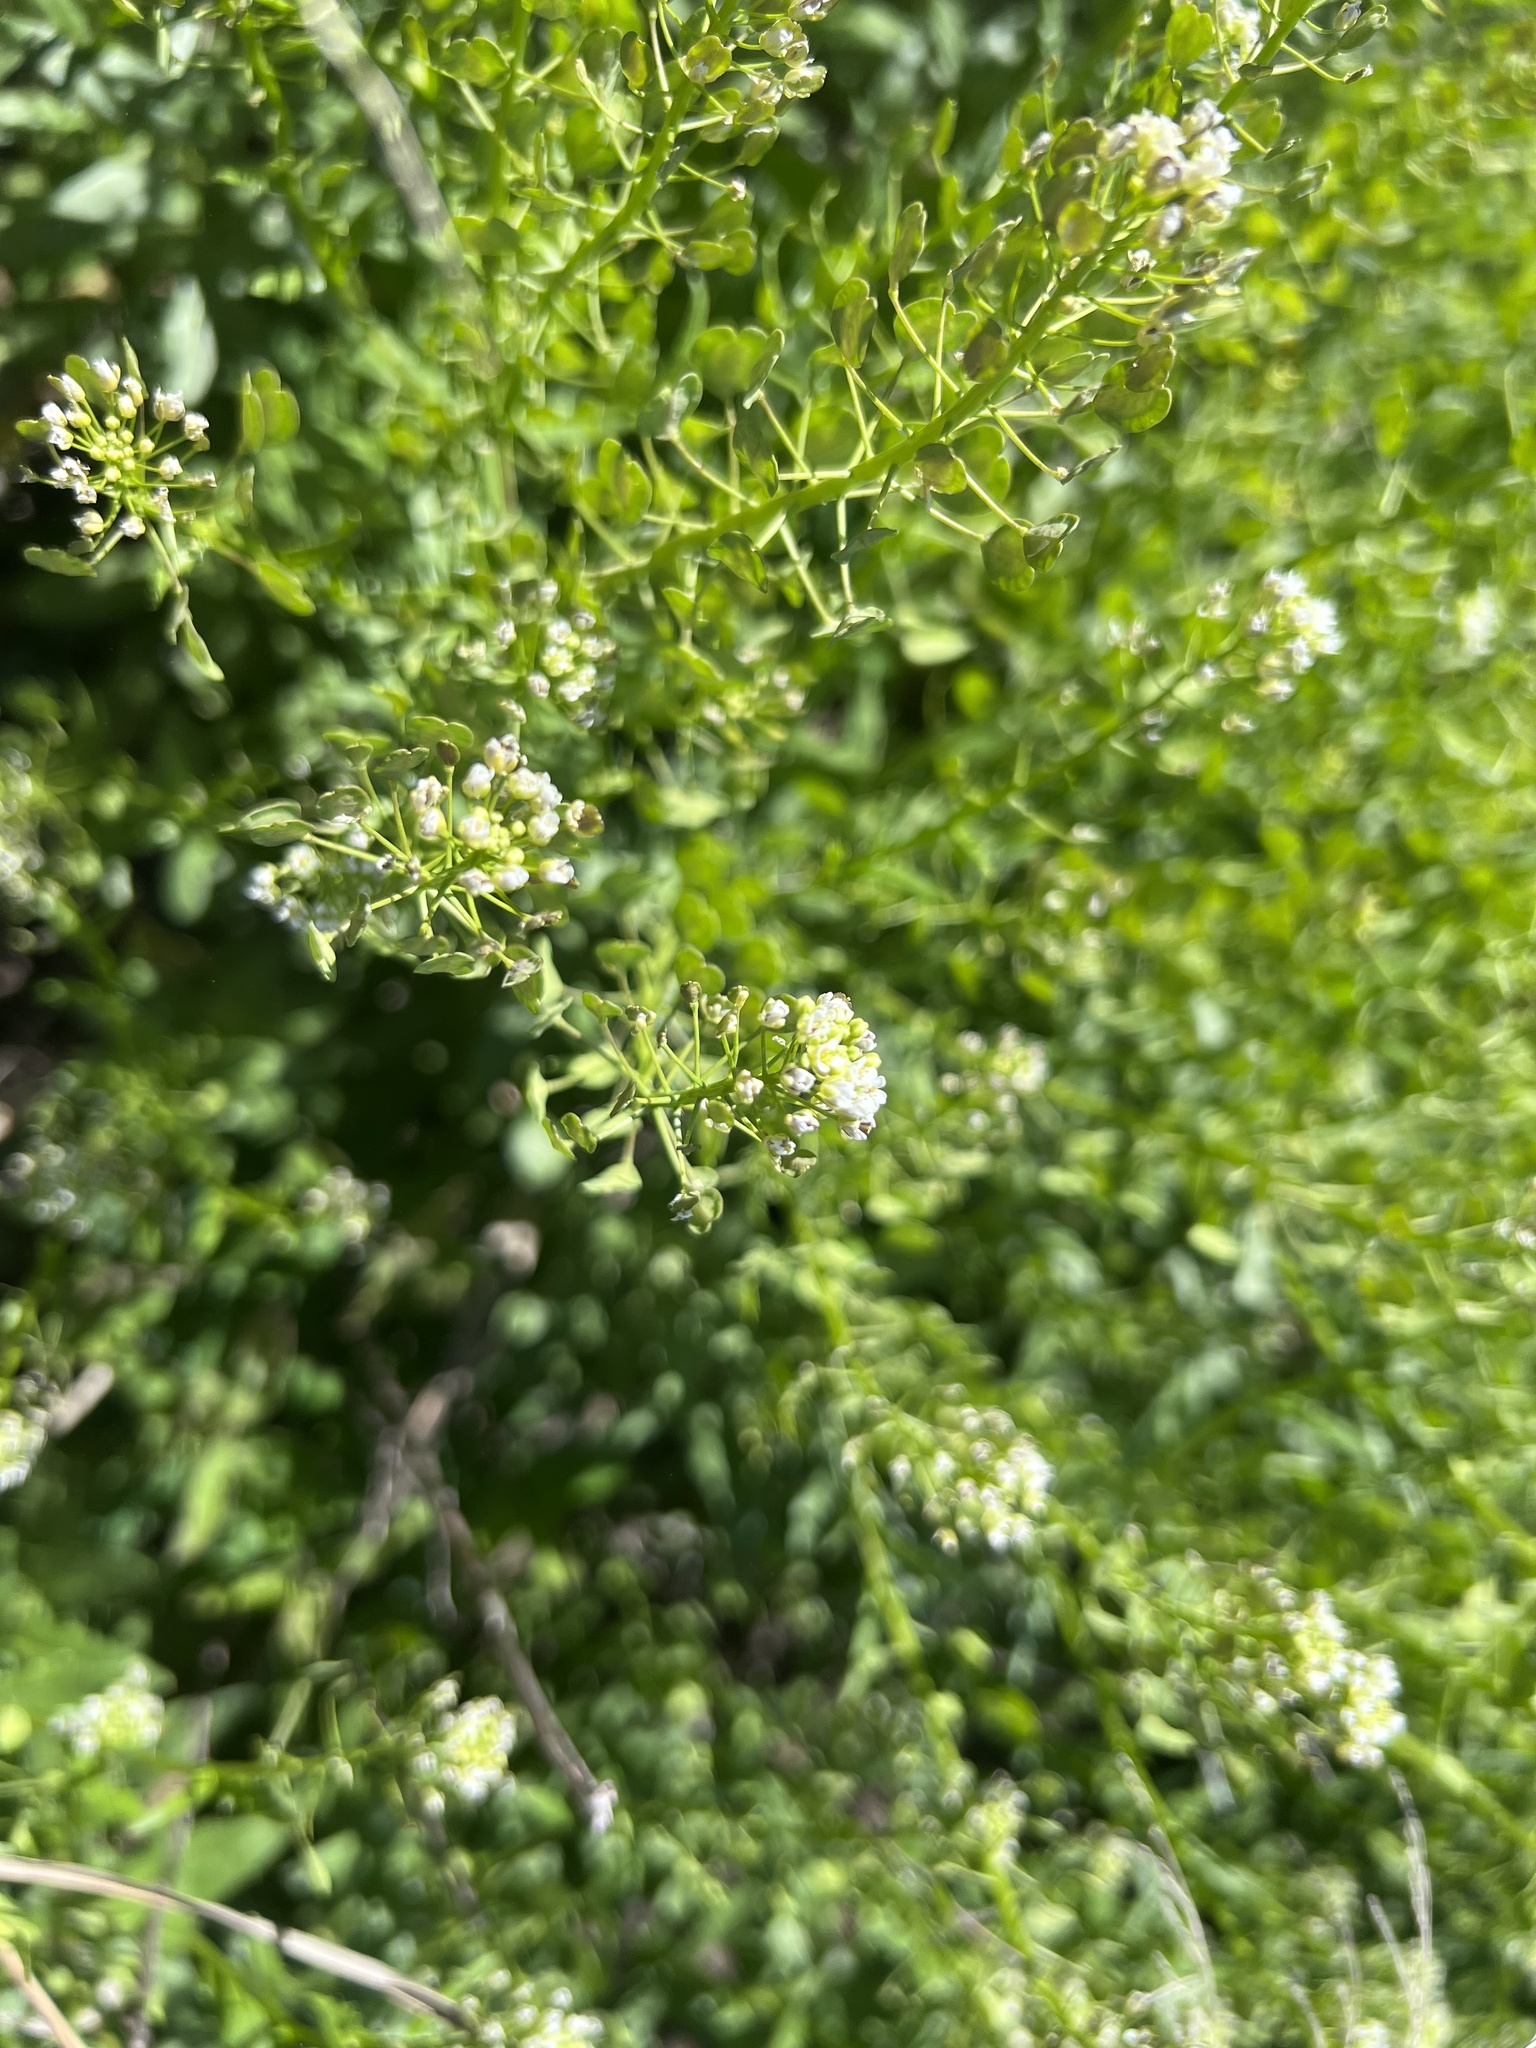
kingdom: Plantae
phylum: Tracheophyta
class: Magnoliopsida
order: Brassicales
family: Brassicaceae
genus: Lepidium
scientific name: Lepidium virginicum
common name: Least pepperwort
